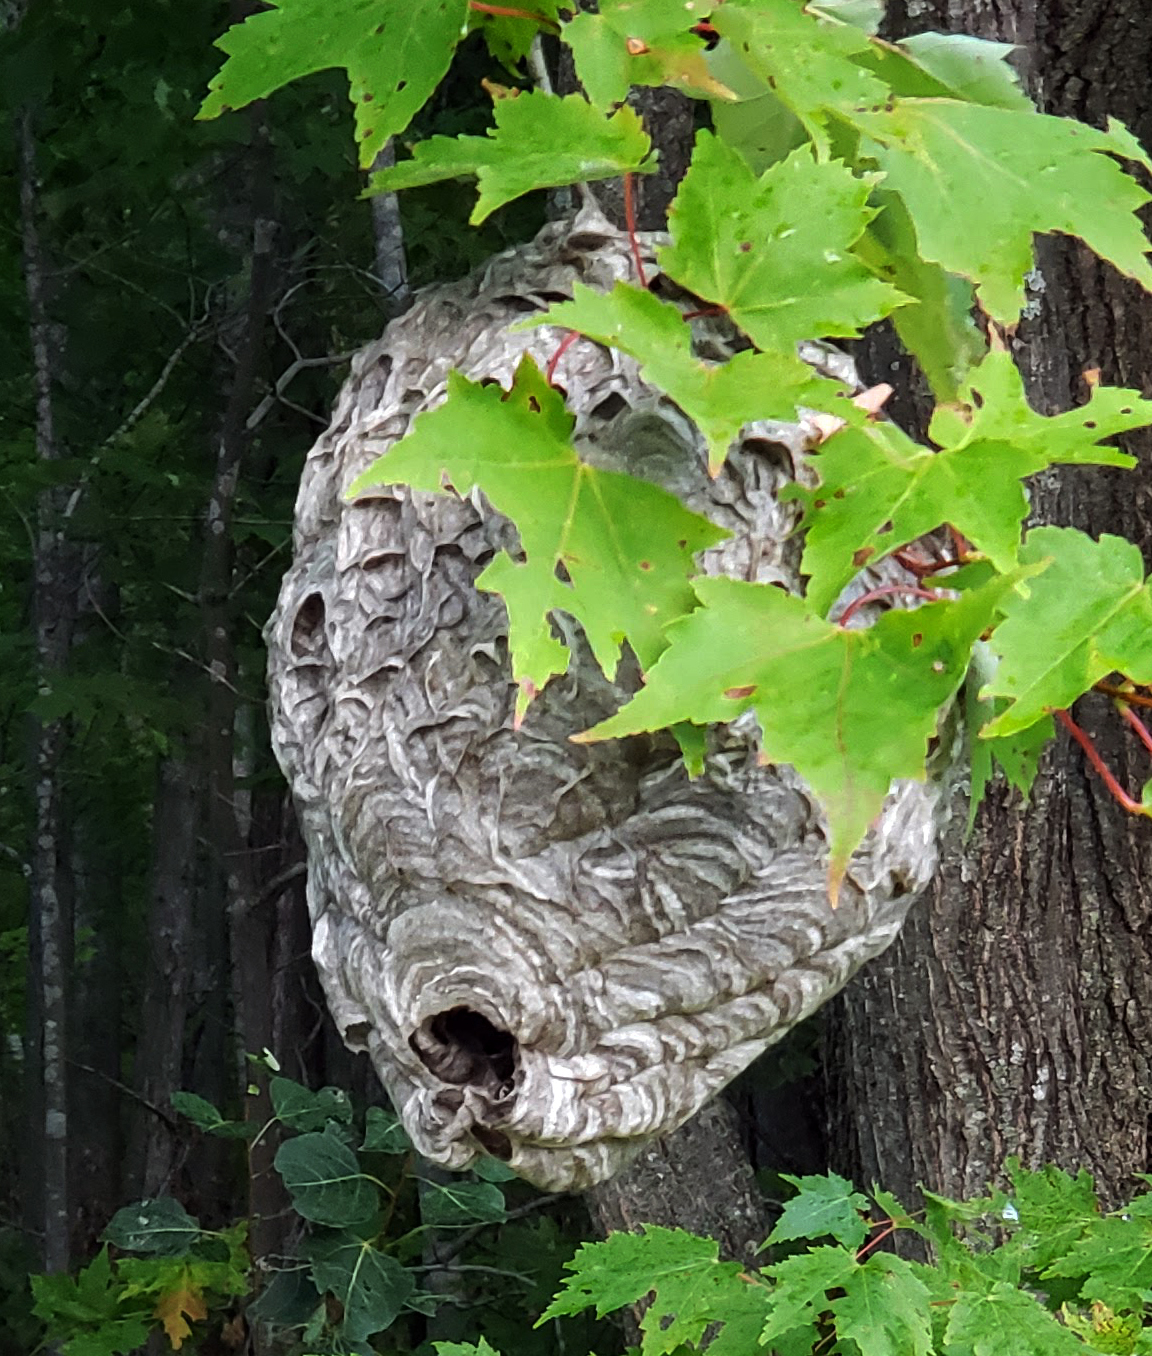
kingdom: Animalia
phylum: Arthropoda
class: Insecta
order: Hymenoptera
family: Vespidae
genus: Dolichovespula
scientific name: Dolichovespula maculata
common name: Bald-faced hornet
